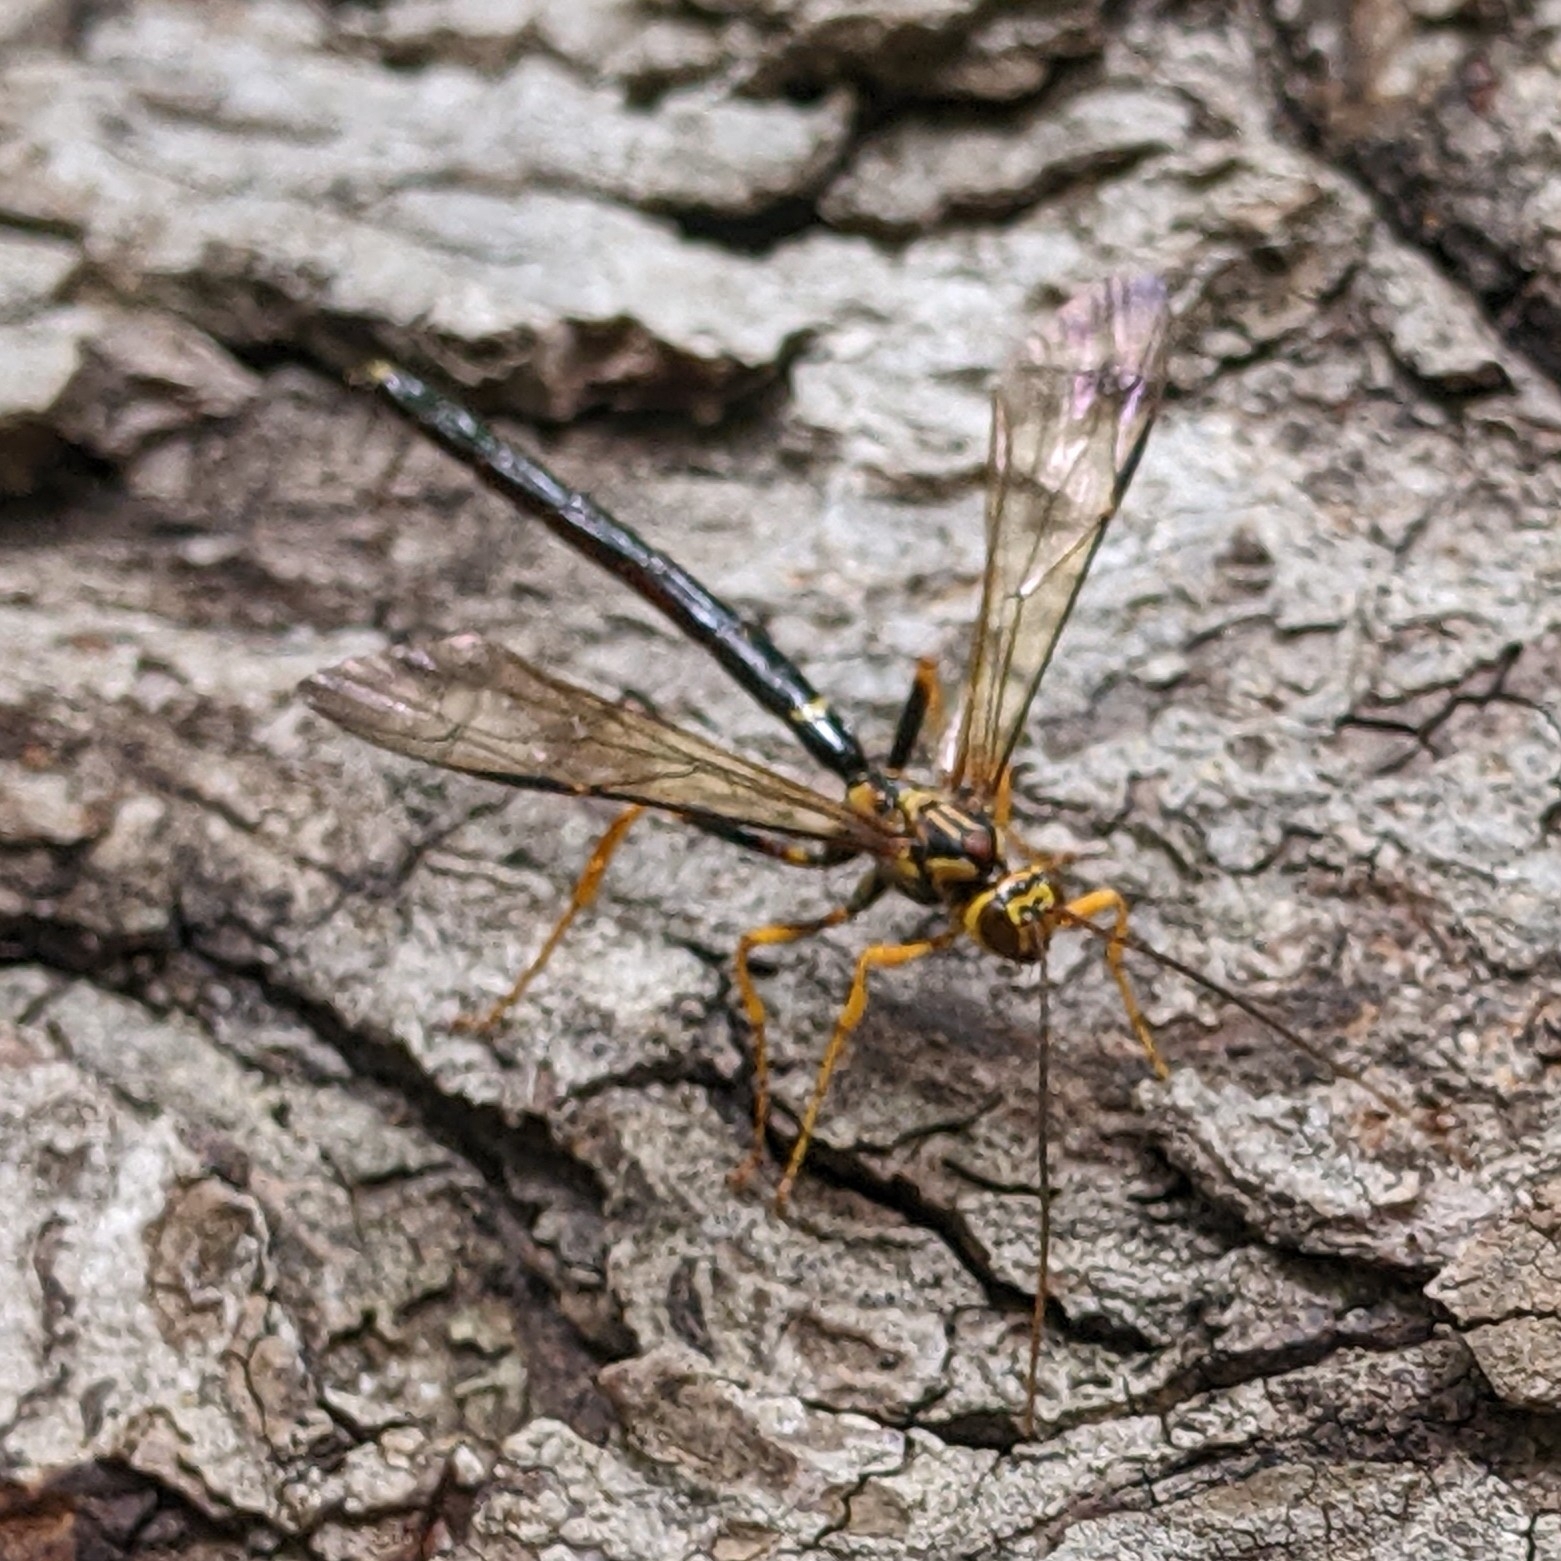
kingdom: Animalia
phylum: Arthropoda
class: Insecta
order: Hymenoptera
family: Ichneumonidae
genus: Megarhyssa
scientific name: Megarhyssa atrata
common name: Black giant ichneumonid wasp
